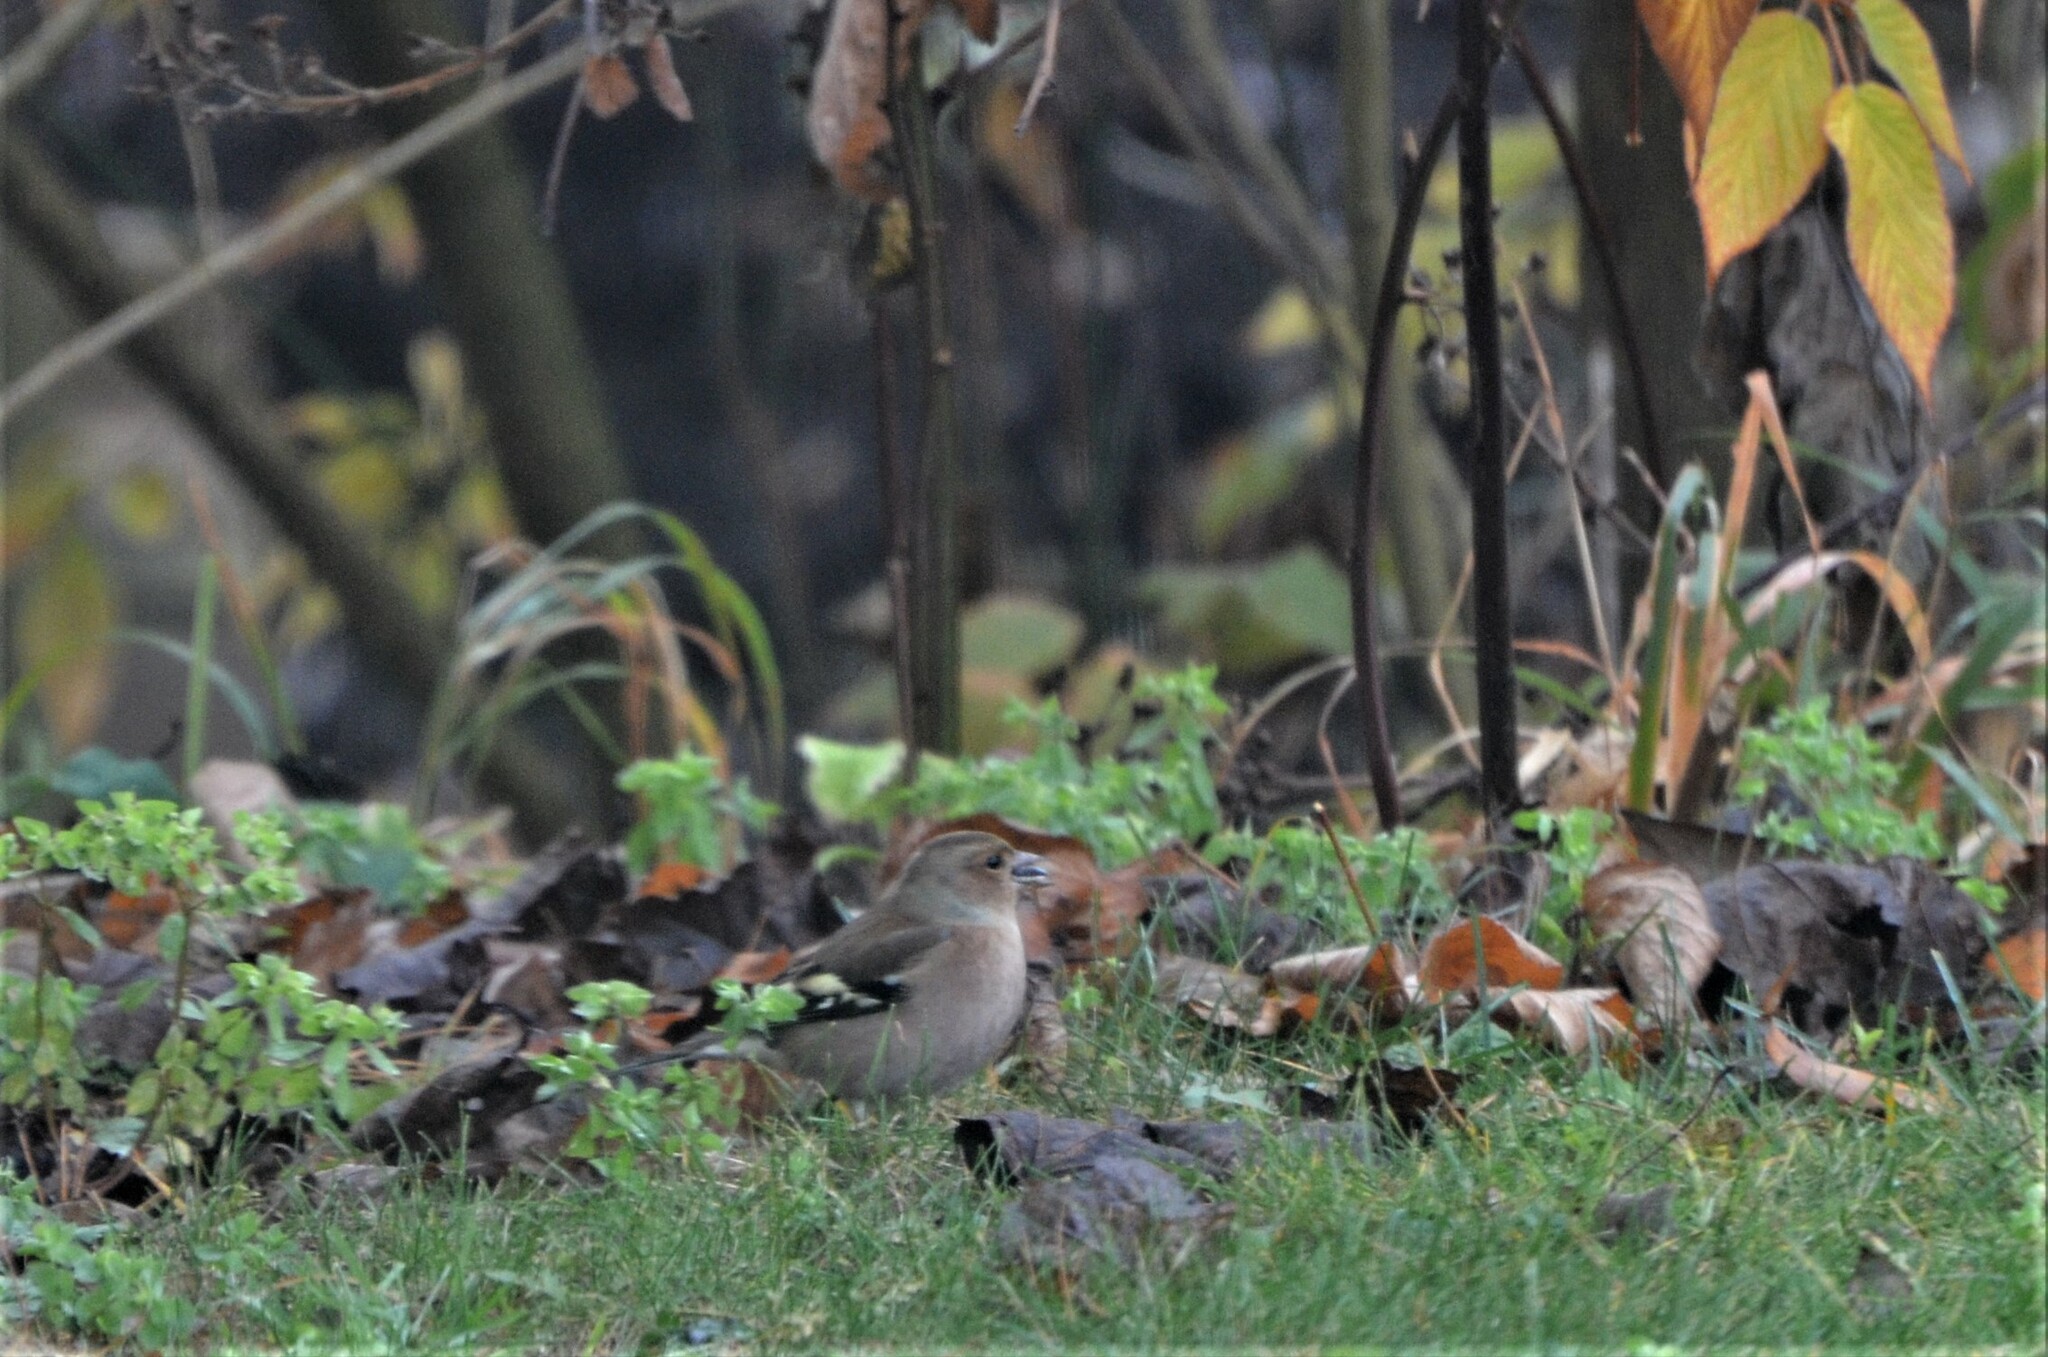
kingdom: Animalia
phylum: Chordata
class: Aves
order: Passeriformes
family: Fringillidae
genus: Fringilla
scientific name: Fringilla coelebs
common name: Common chaffinch
